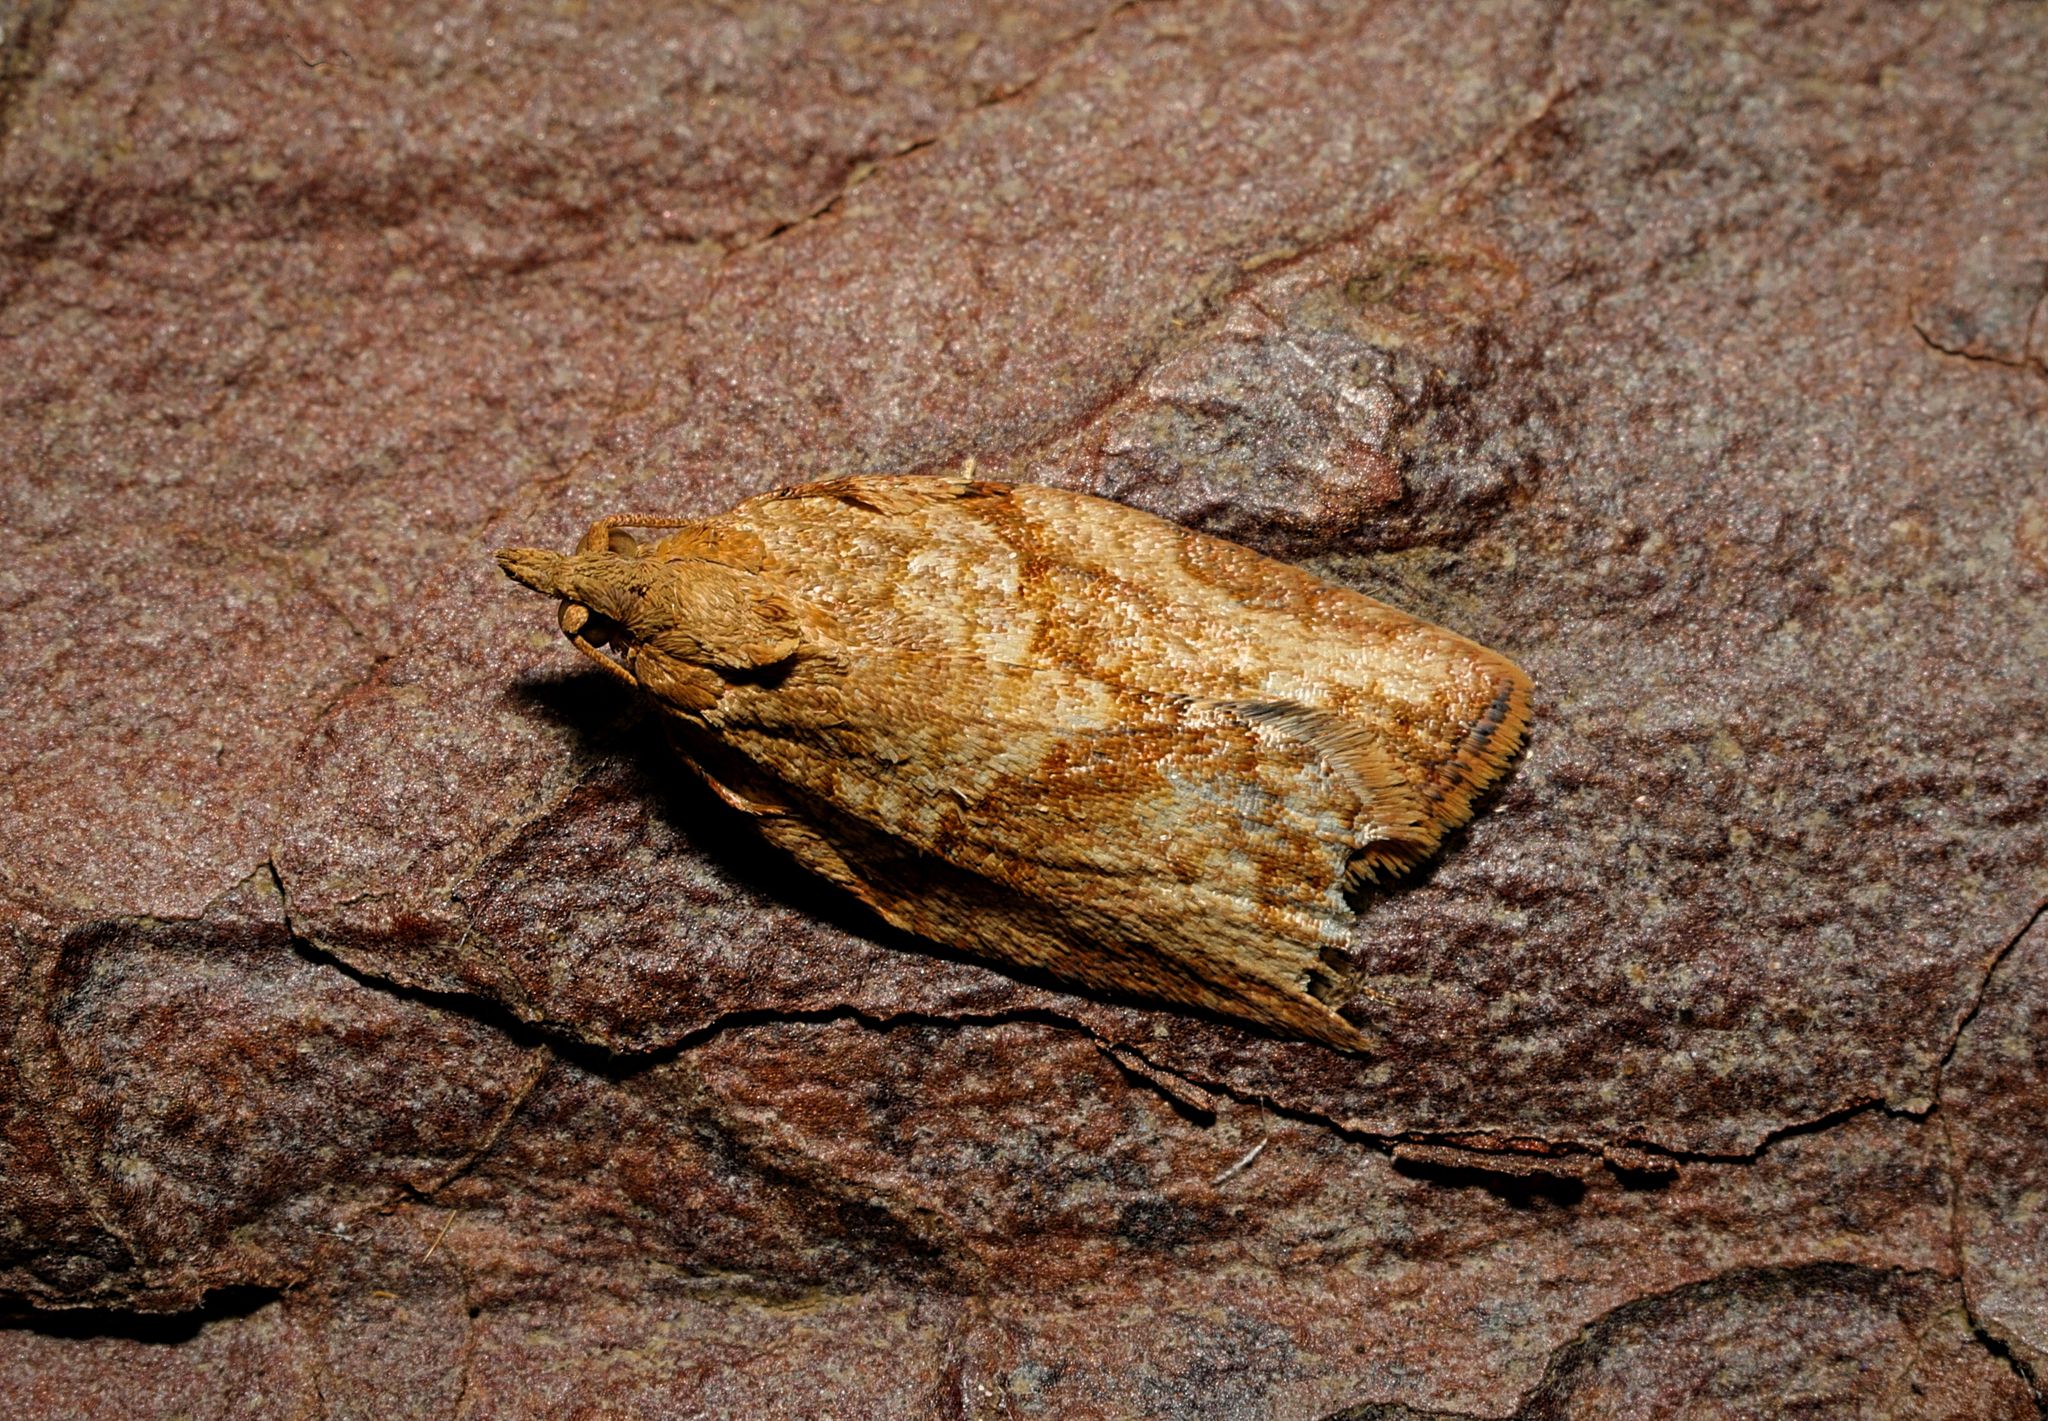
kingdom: Animalia
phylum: Arthropoda
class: Insecta
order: Lepidoptera
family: Tortricidae
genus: Epiphyas
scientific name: Epiphyas postvittana
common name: Light brown apple moth
